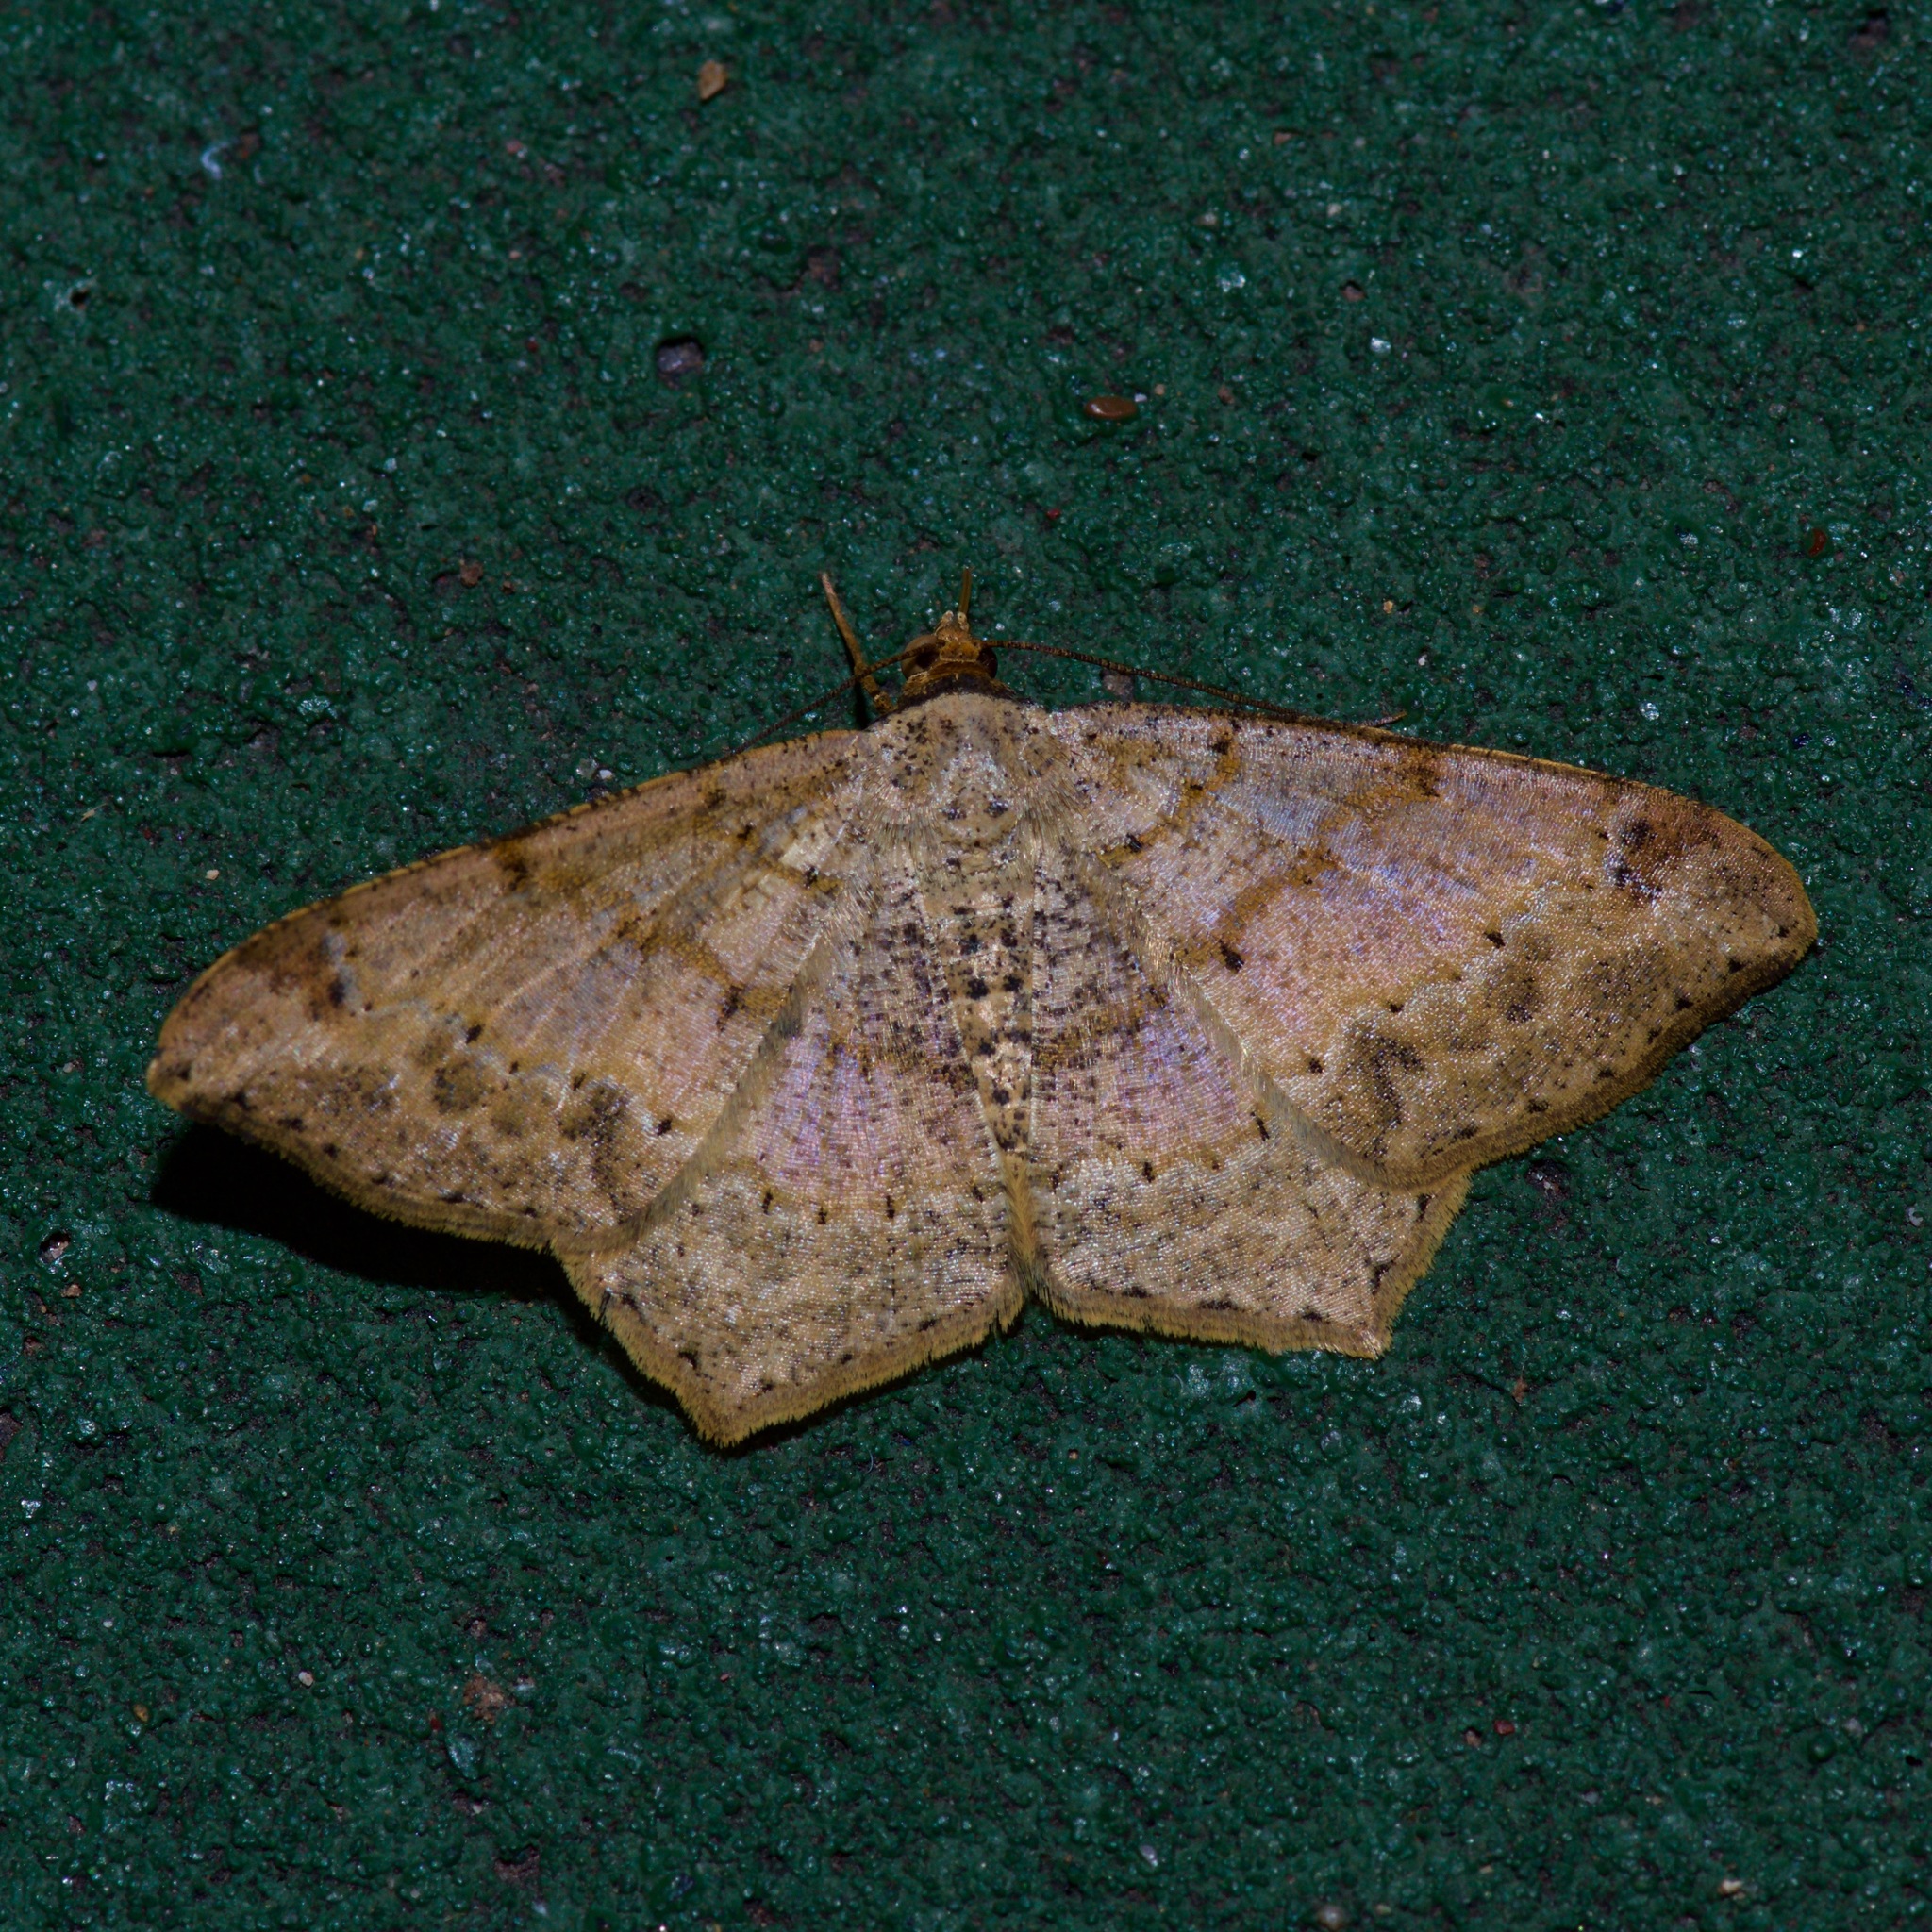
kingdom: Animalia
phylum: Arthropoda
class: Insecta
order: Lepidoptera
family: Geometridae
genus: Macaria
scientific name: Macaria abydata
